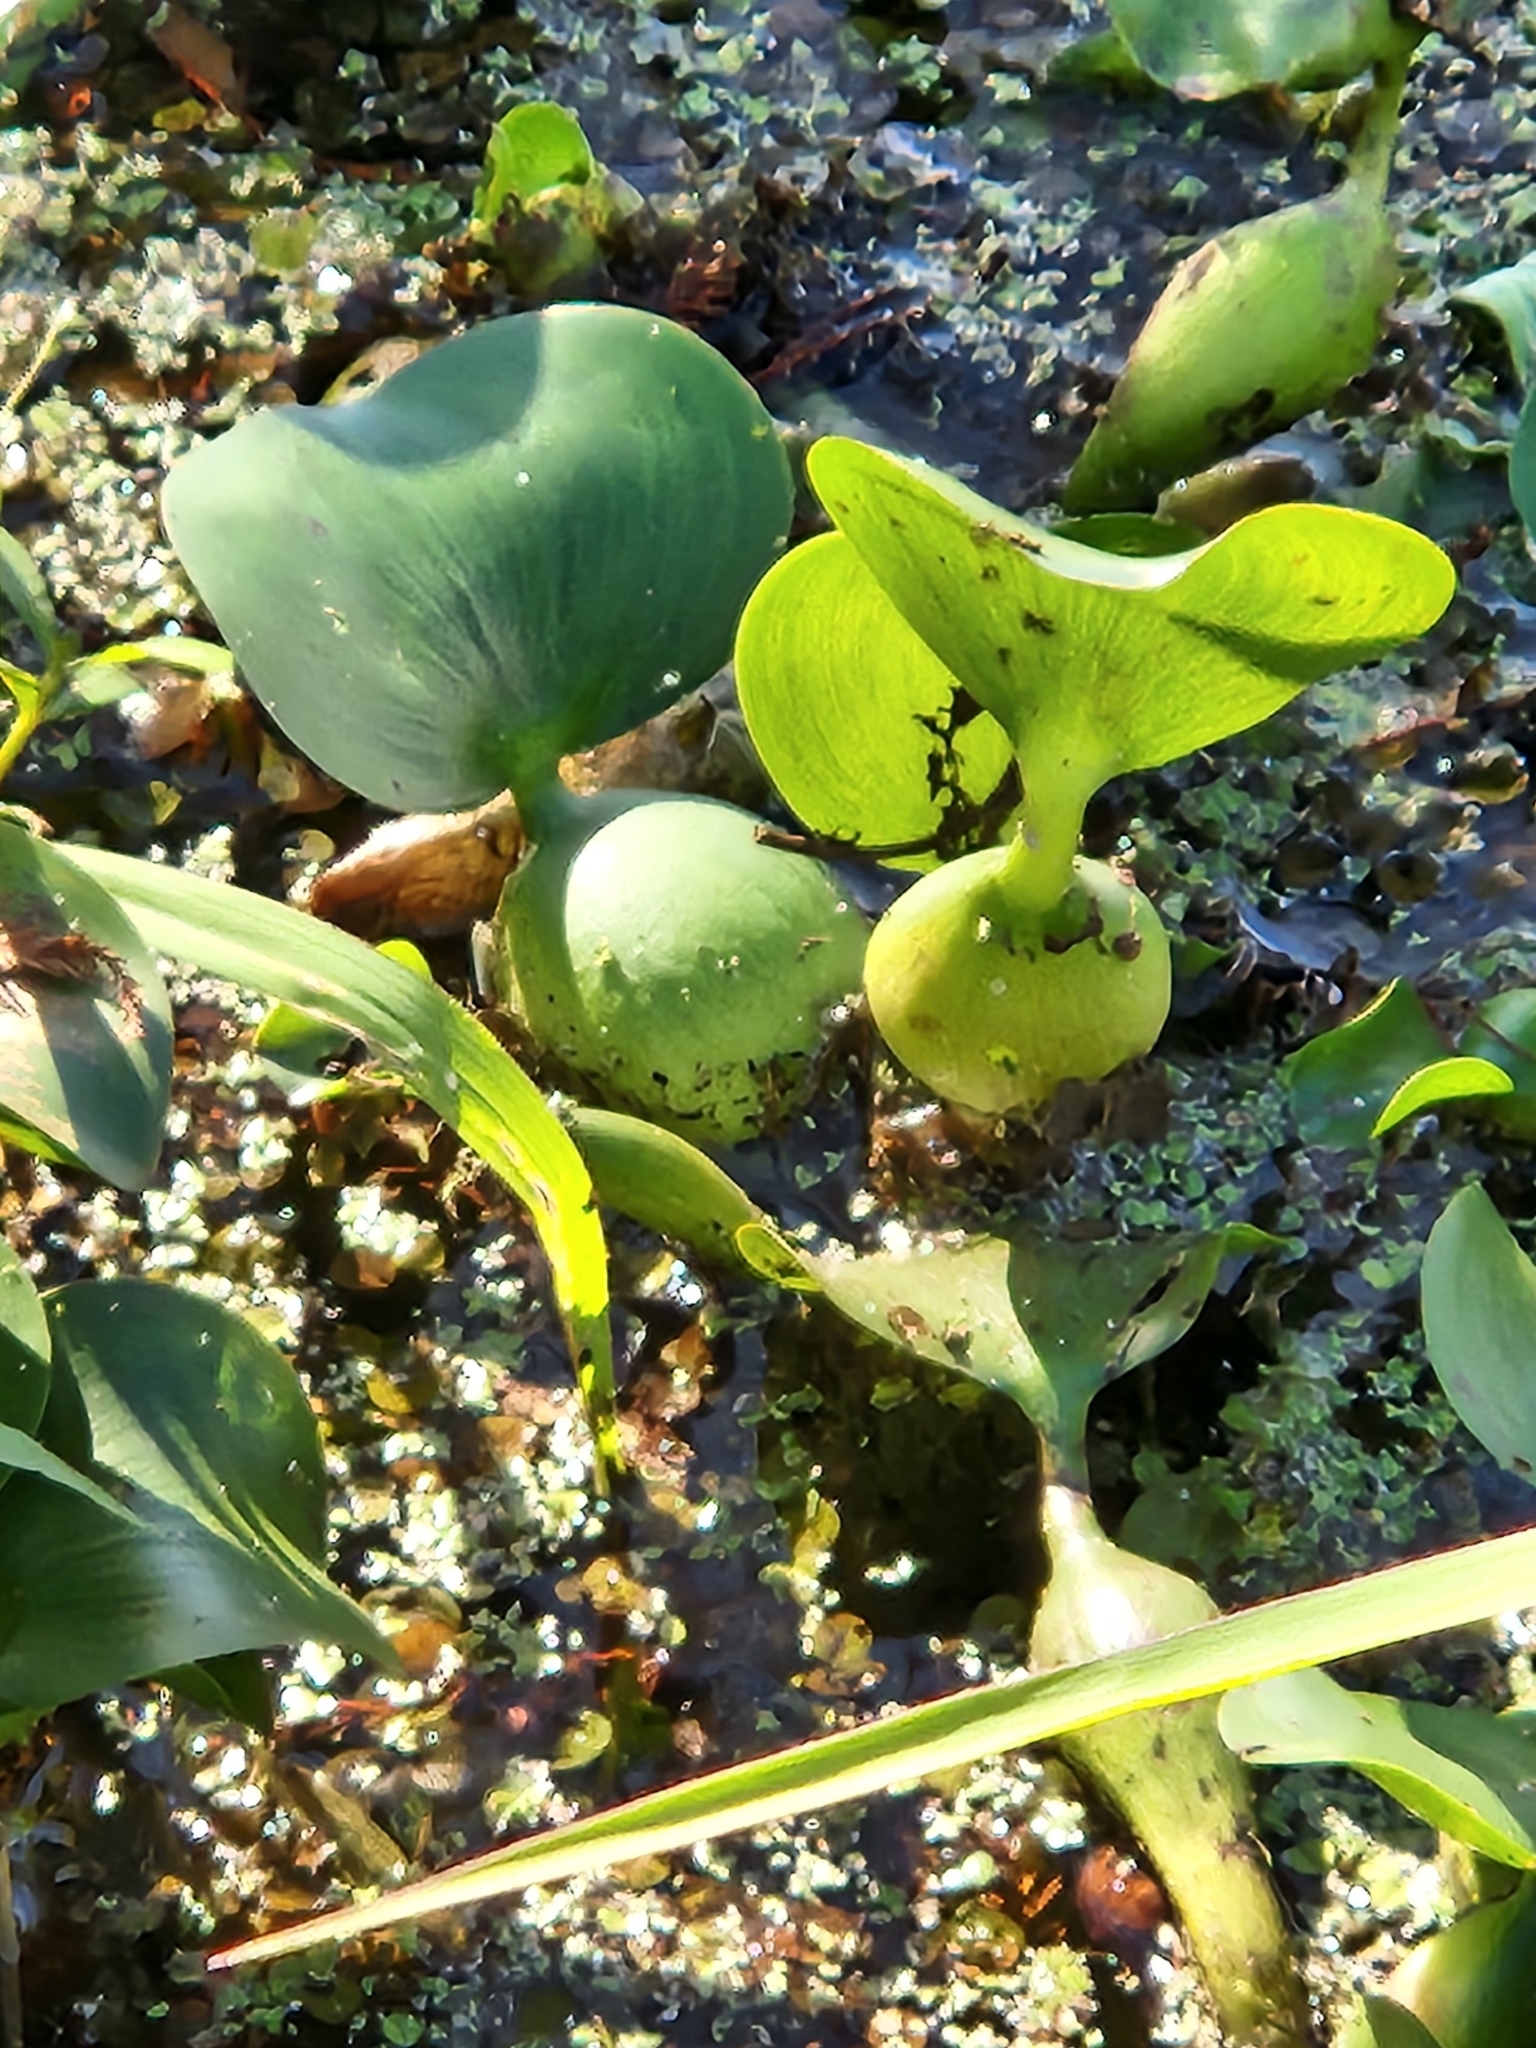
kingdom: Plantae
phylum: Tracheophyta
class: Liliopsida
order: Commelinales
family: Pontederiaceae
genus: Pontederia
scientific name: Pontederia crassipes
